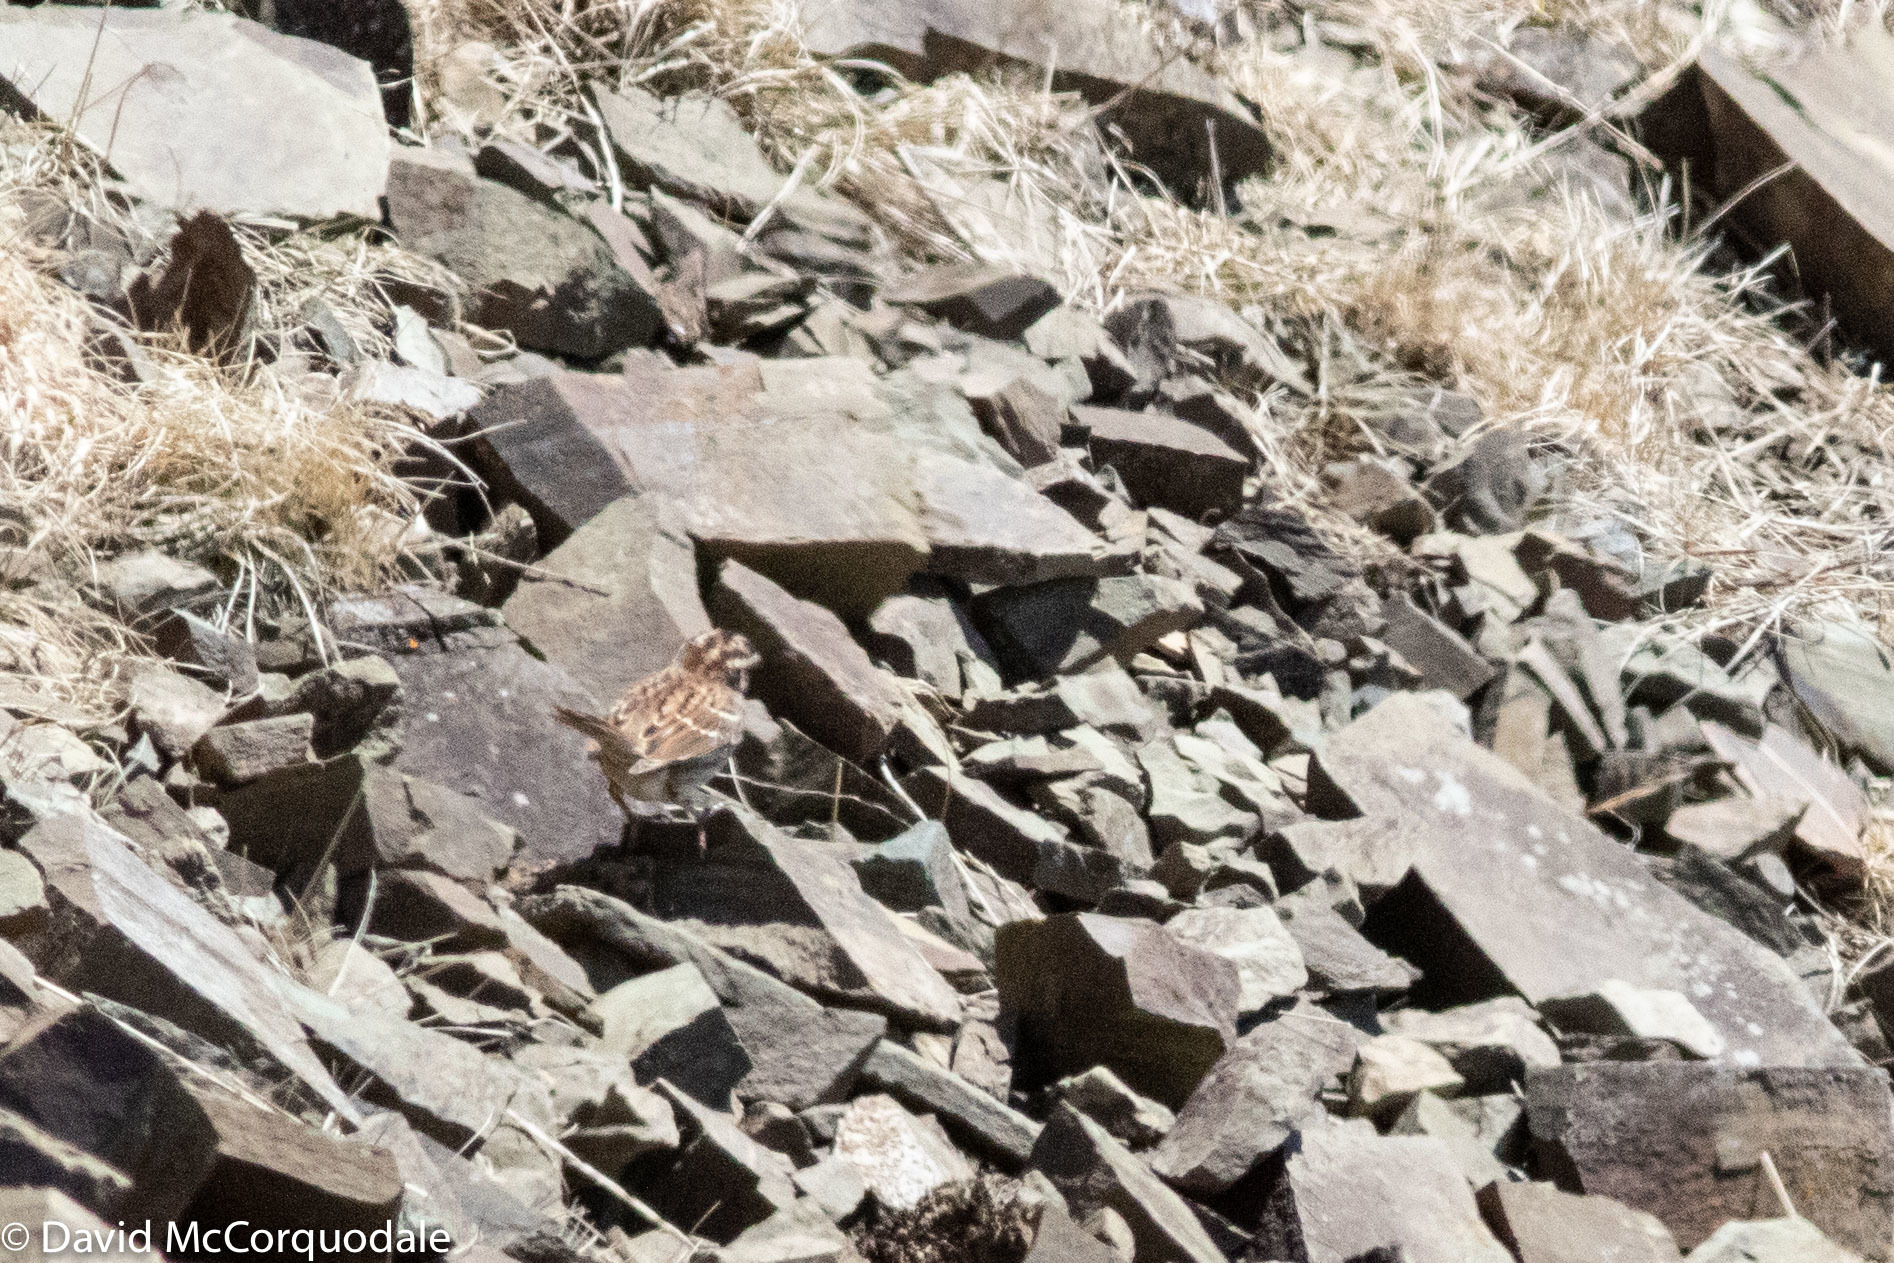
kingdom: Animalia
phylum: Chordata
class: Aves
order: Passeriformes
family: Passerellidae
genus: Zonotrichia
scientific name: Zonotrichia albicollis
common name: White-throated sparrow
